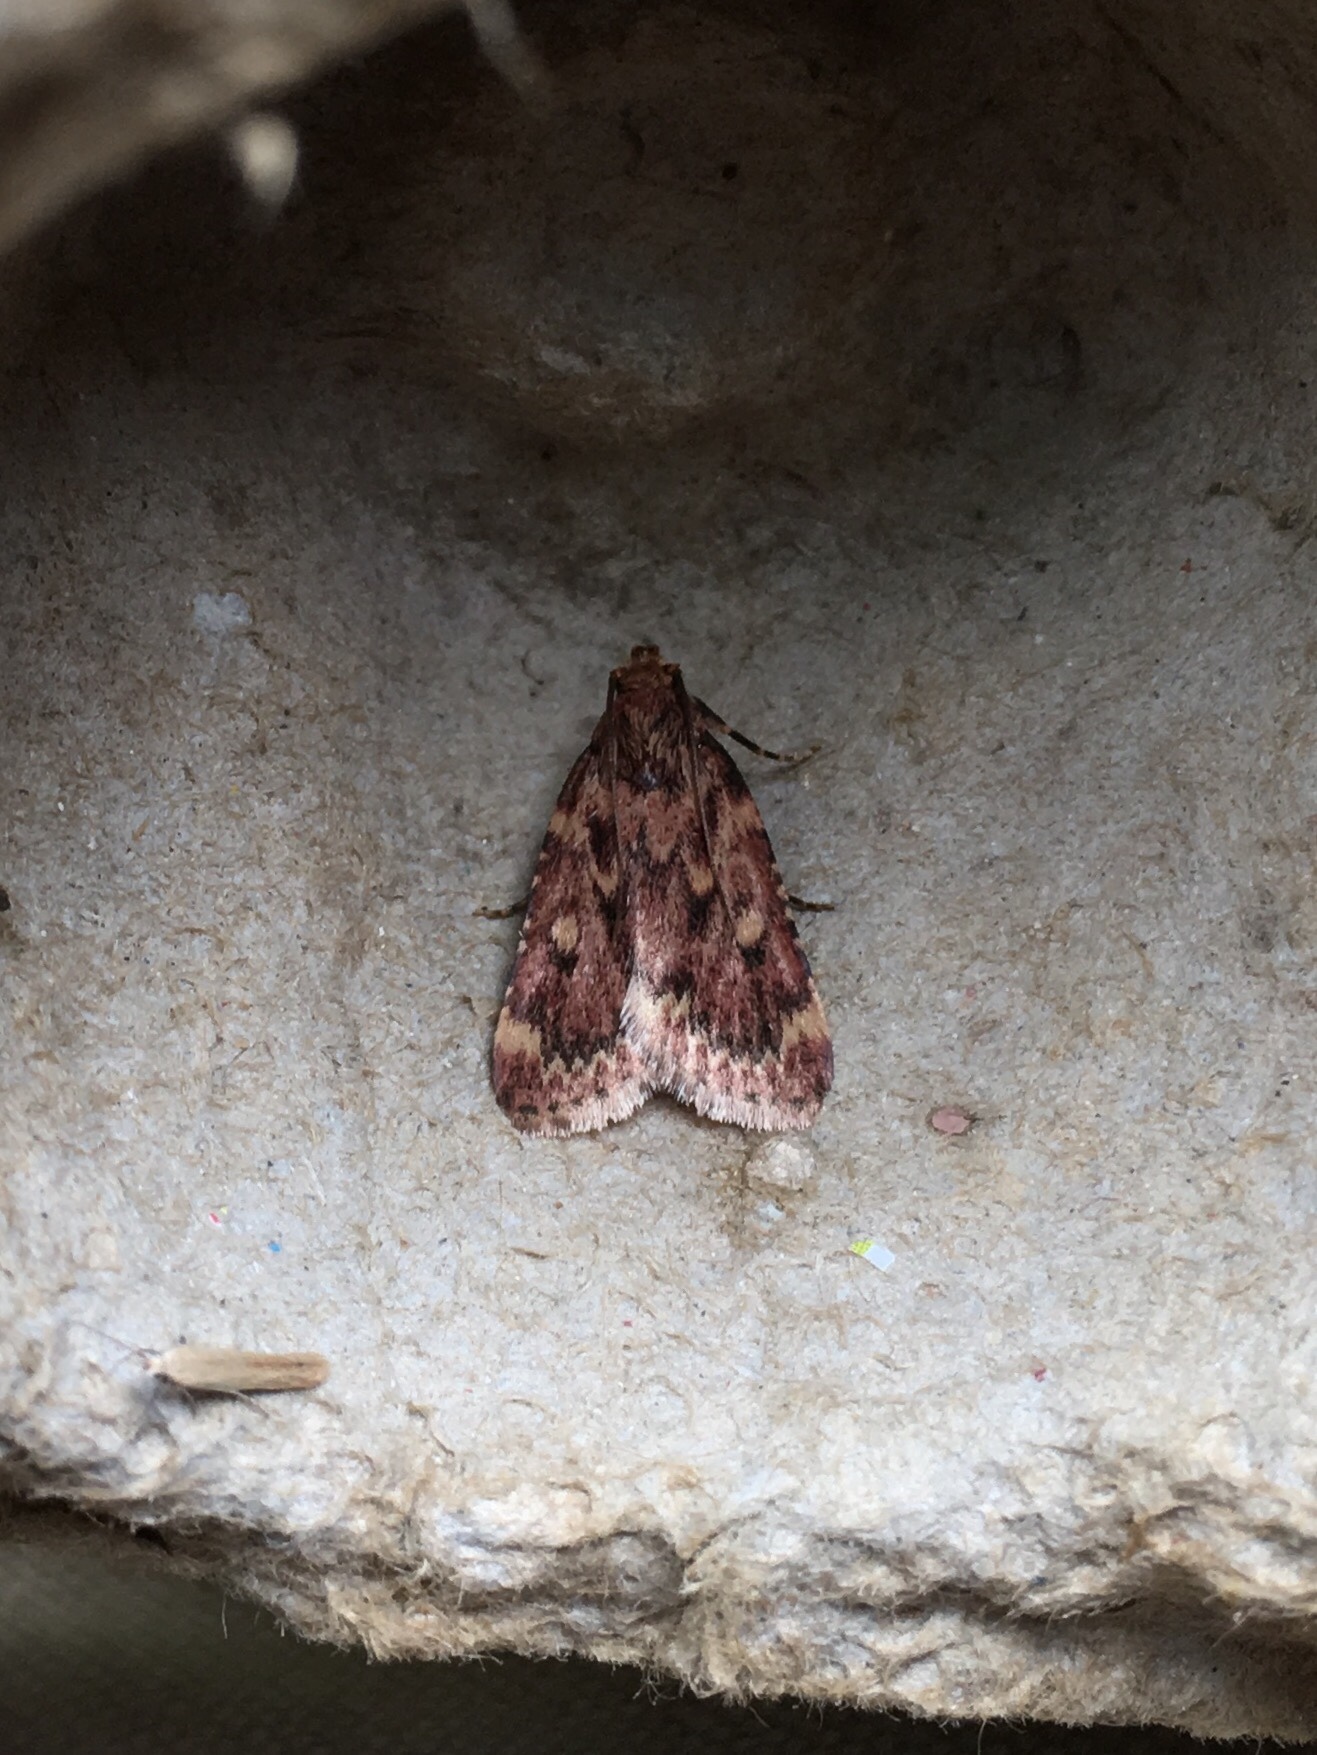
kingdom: Animalia
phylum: Arthropoda
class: Insecta
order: Lepidoptera
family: Pyralidae
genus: Aglossa
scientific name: Aglossa cuprina
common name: Grease moth
